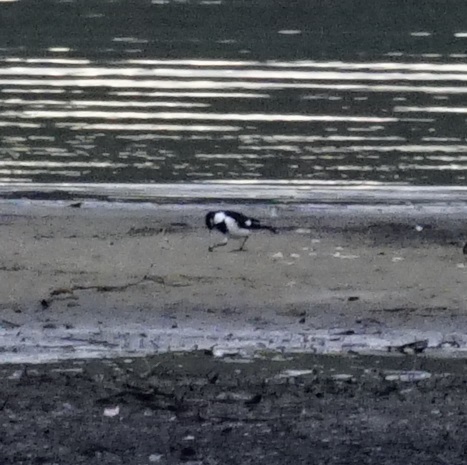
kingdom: Animalia
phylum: Chordata
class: Aves
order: Passeriformes
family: Monarchidae
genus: Grallina
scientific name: Grallina cyanoleuca
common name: Magpie-lark
